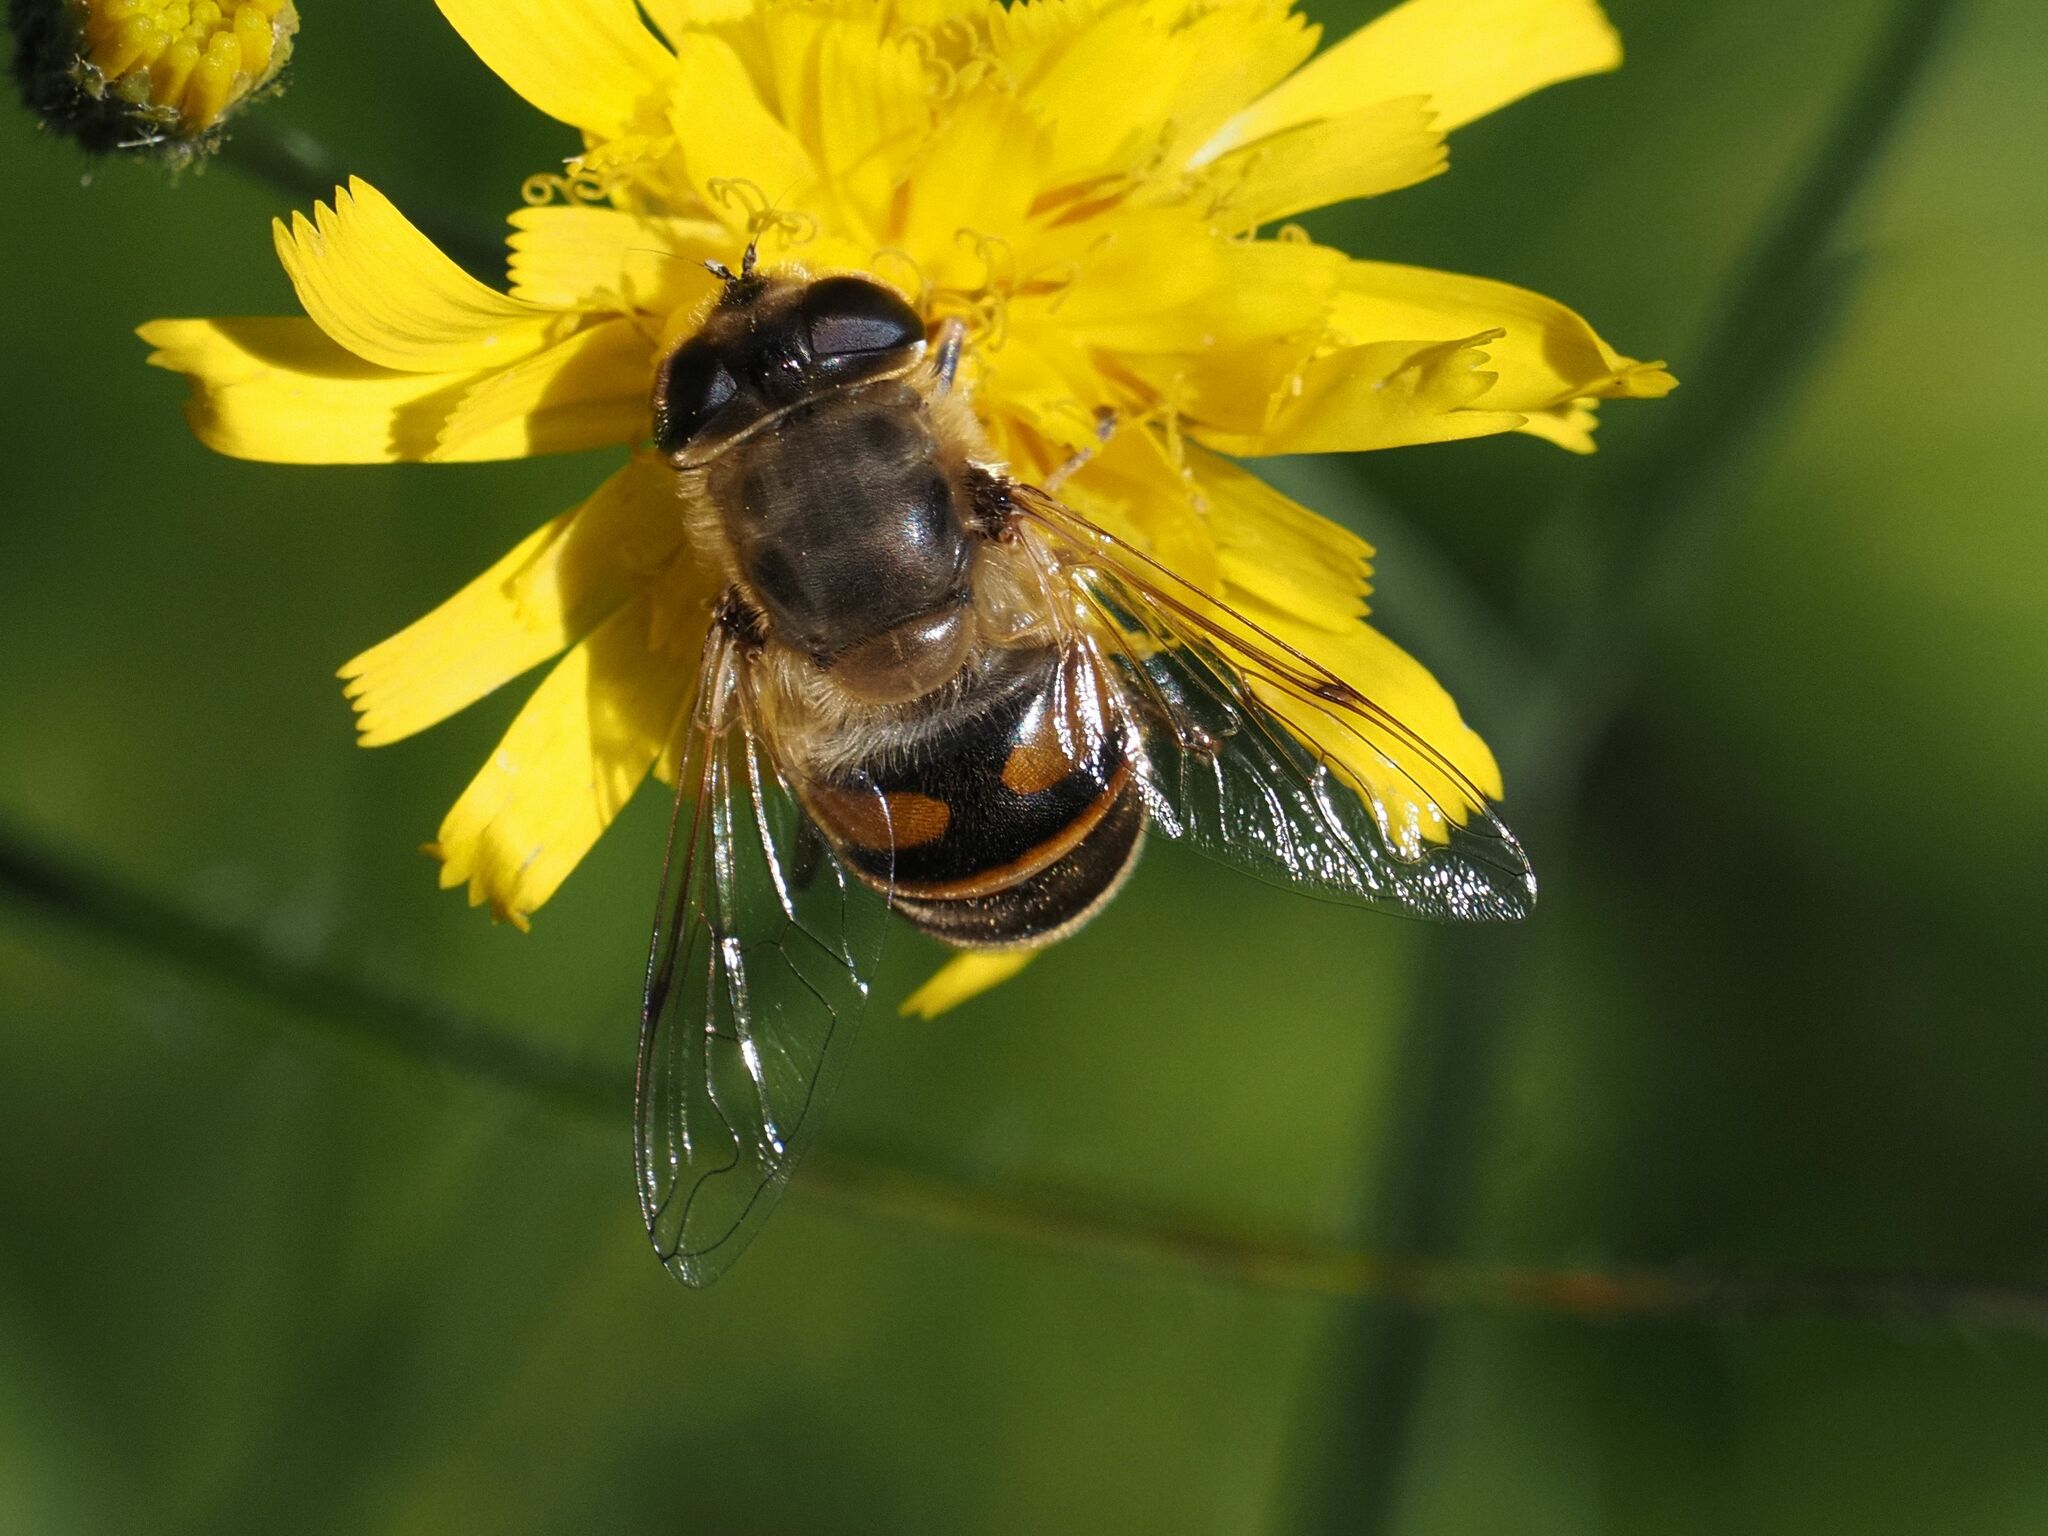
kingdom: Animalia
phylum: Arthropoda
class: Insecta
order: Diptera
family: Syrphidae
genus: Eristalis
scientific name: Eristalis tenax
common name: Drone fly
